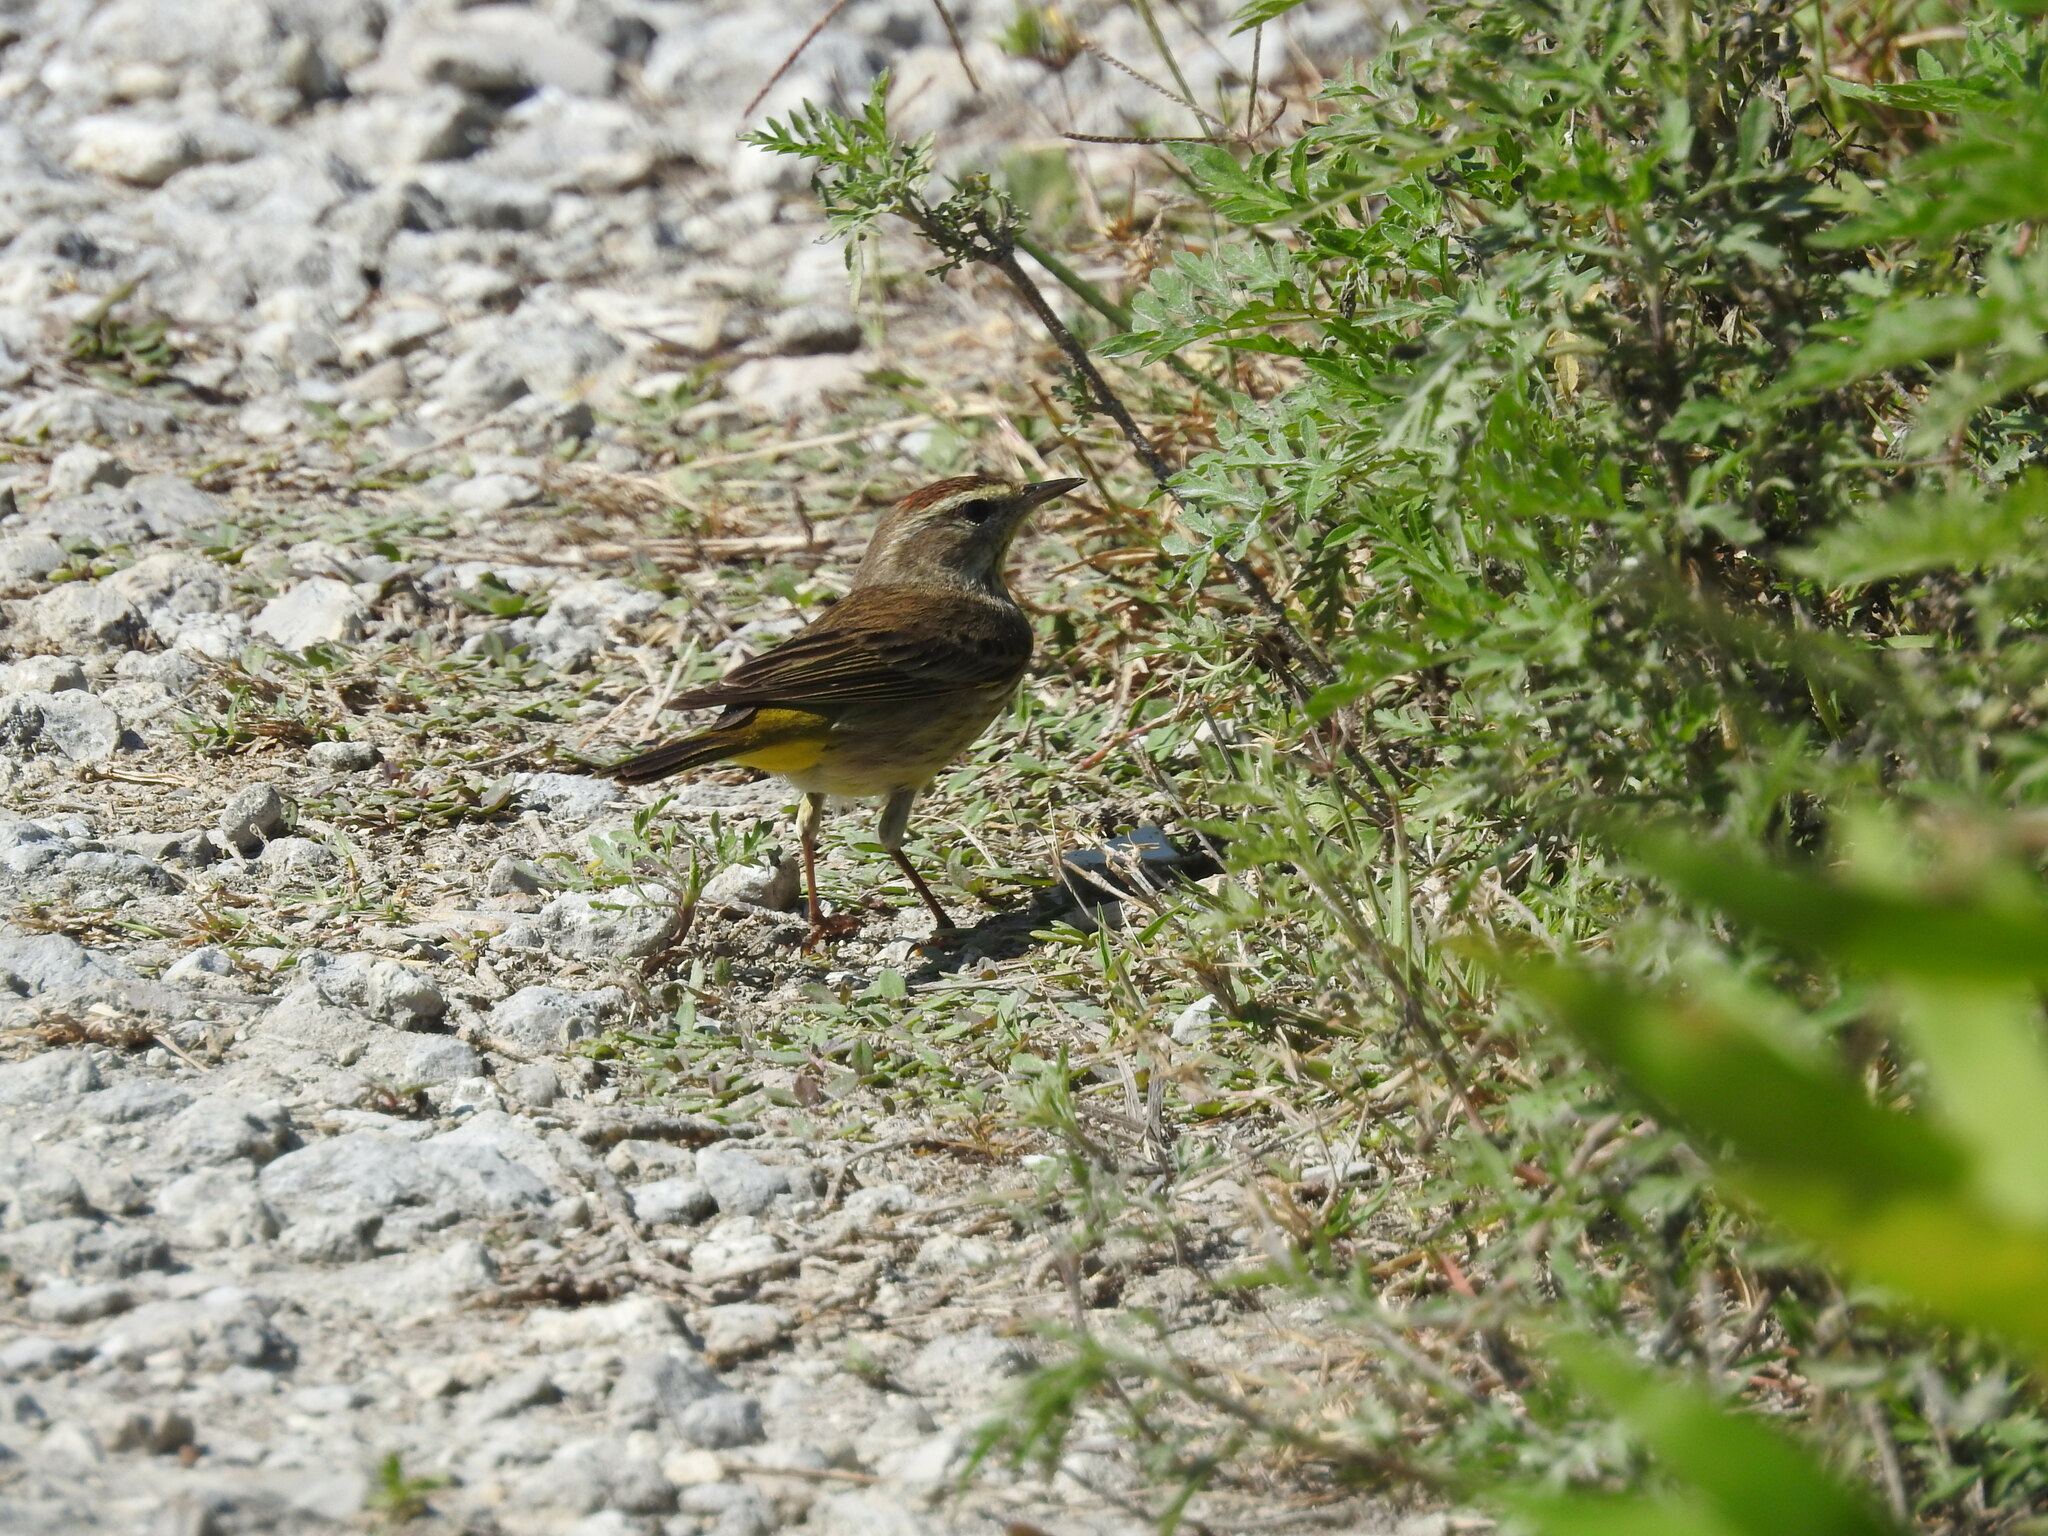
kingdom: Animalia
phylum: Chordata
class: Aves
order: Passeriformes
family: Parulidae
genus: Setophaga
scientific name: Setophaga palmarum
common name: Palm warbler
